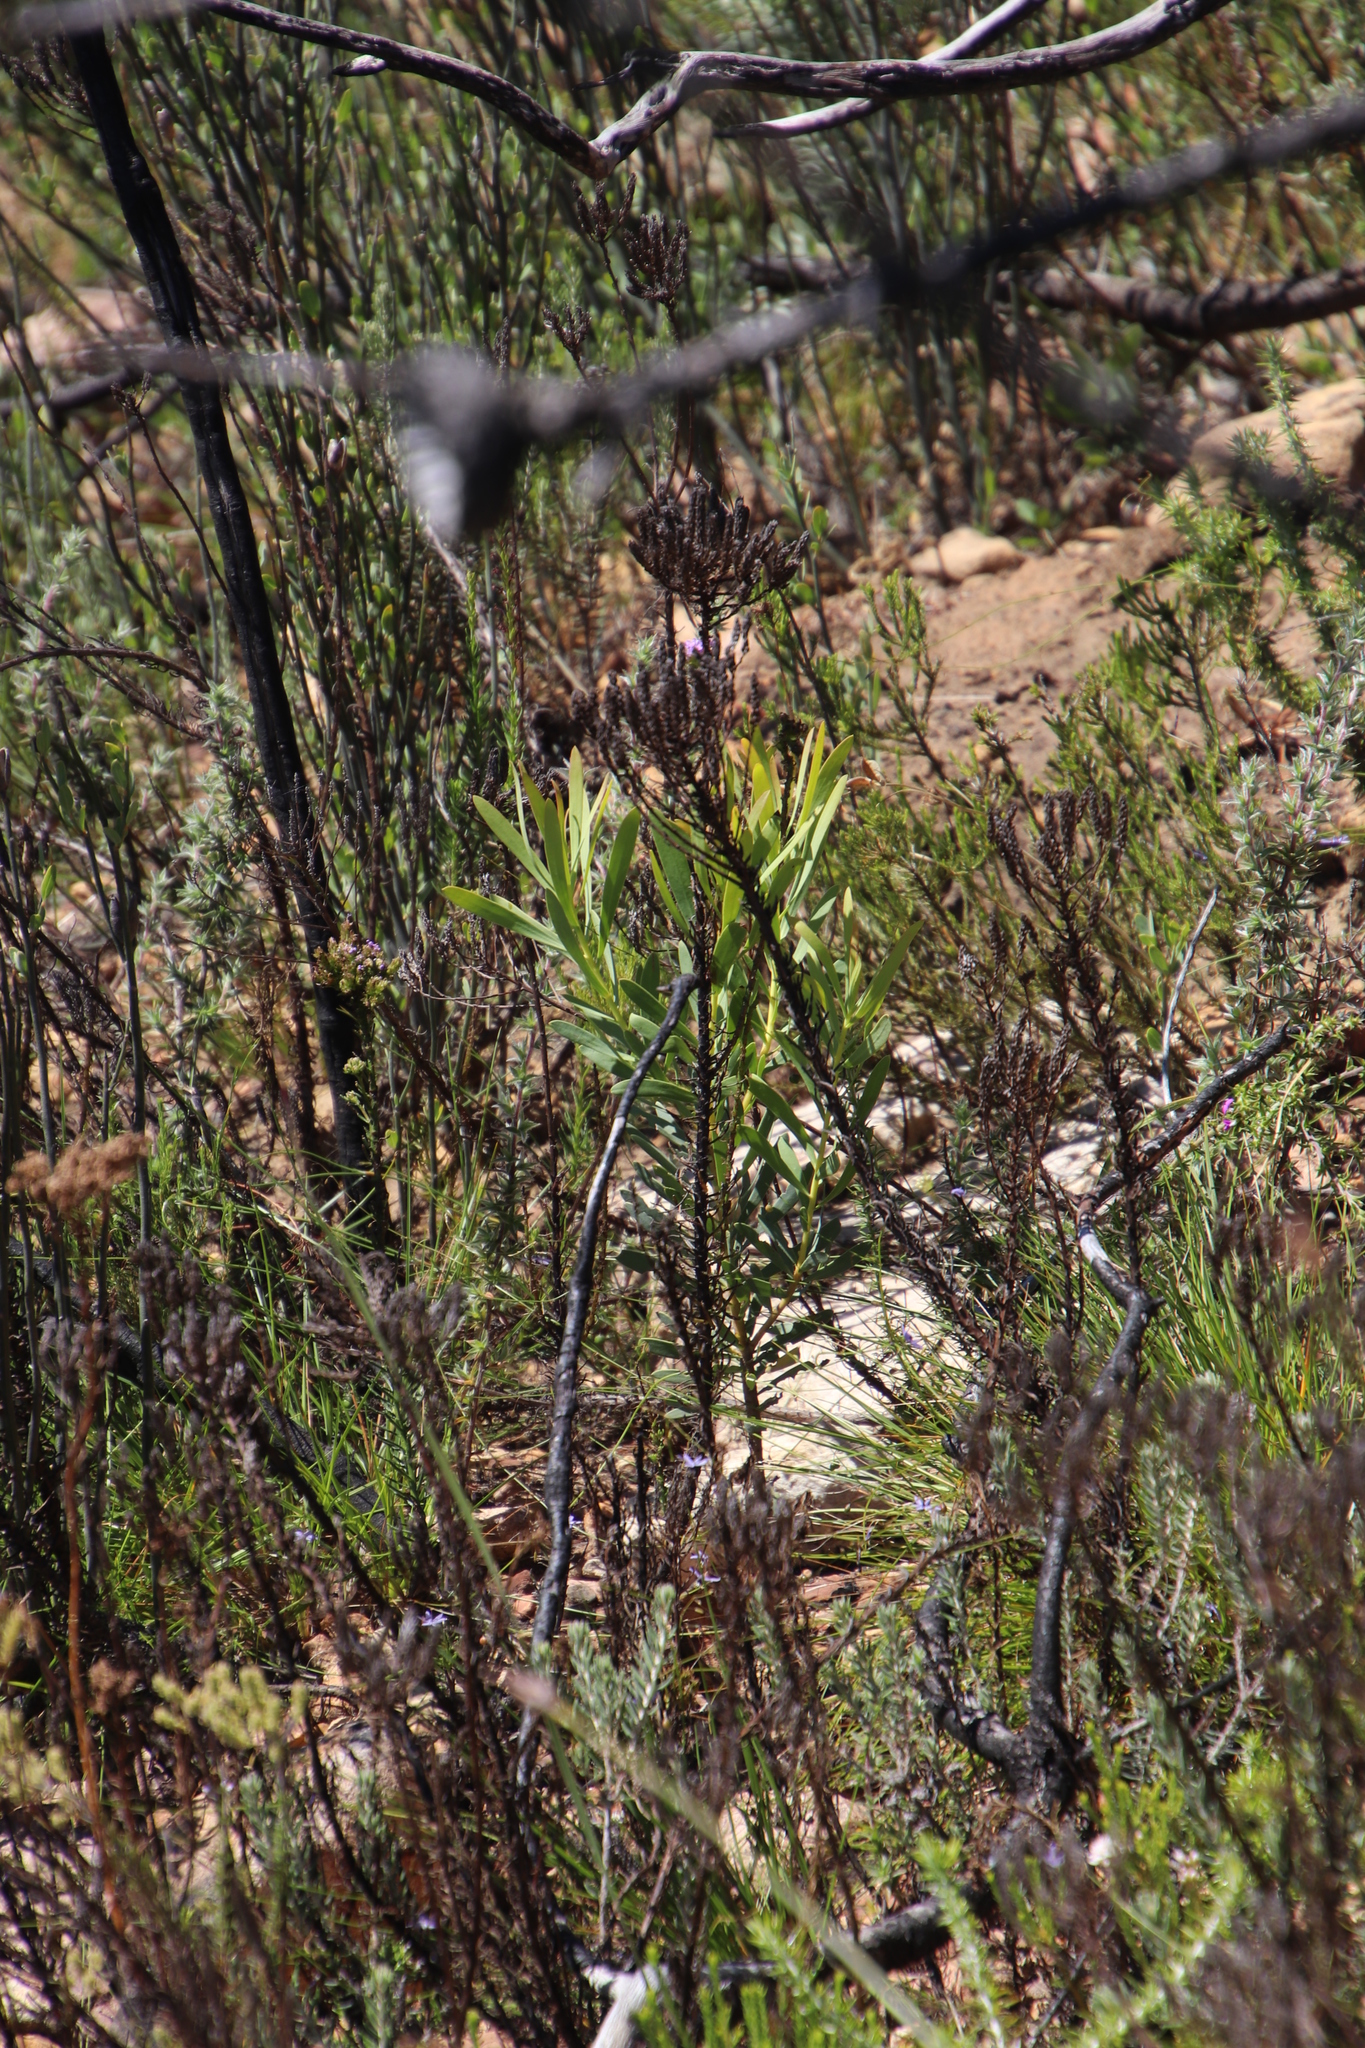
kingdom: Plantae
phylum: Tracheophyta
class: Magnoliopsida
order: Proteales
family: Proteaceae
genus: Protea
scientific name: Protea repens
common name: Sugarbush
